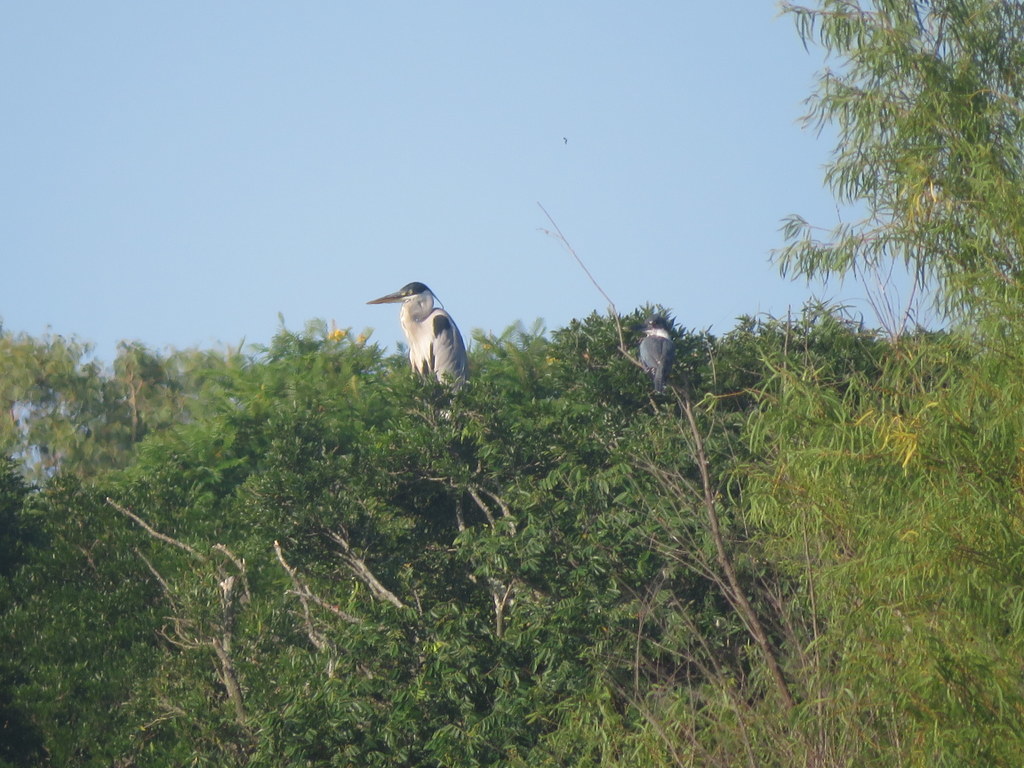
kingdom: Animalia
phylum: Chordata
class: Aves
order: Coraciiformes
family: Alcedinidae
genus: Megaceryle
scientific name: Megaceryle torquata
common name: Ringed kingfisher
